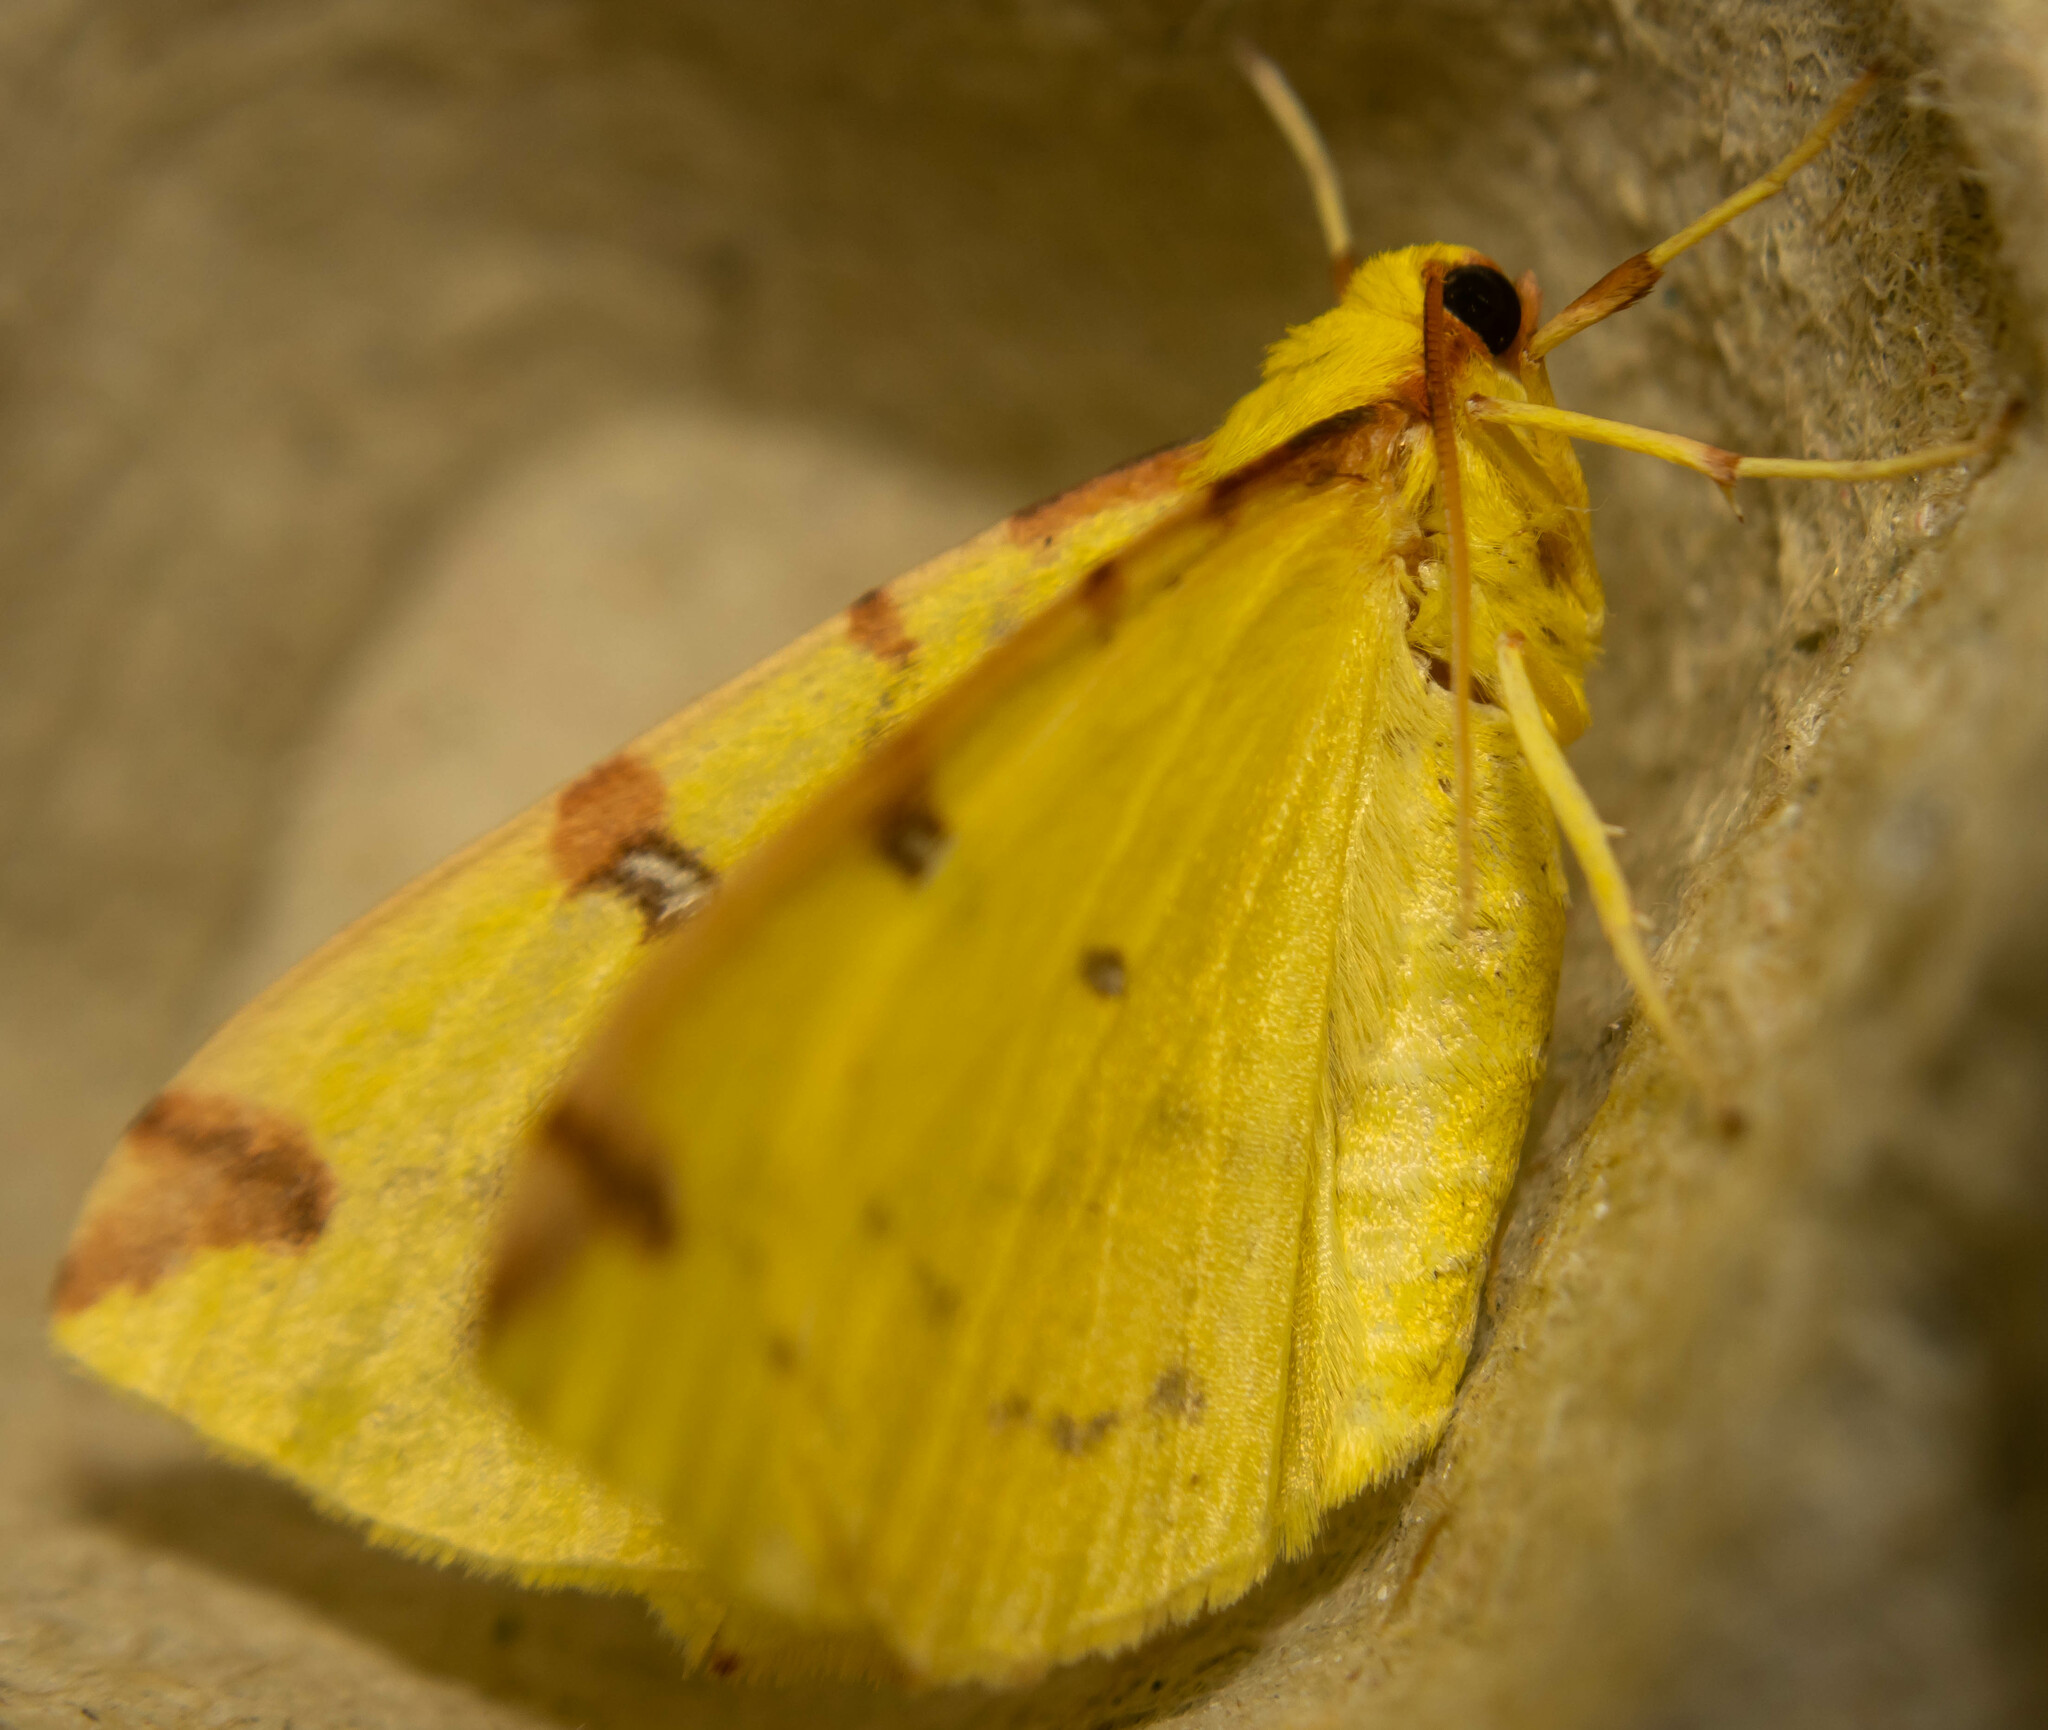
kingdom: Animalia
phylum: Arthropoda
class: Insecta
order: Lepidoptera
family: Geometridae
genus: Opisthograptis
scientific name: Opisthograptis luteolata
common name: Brimstone moth
